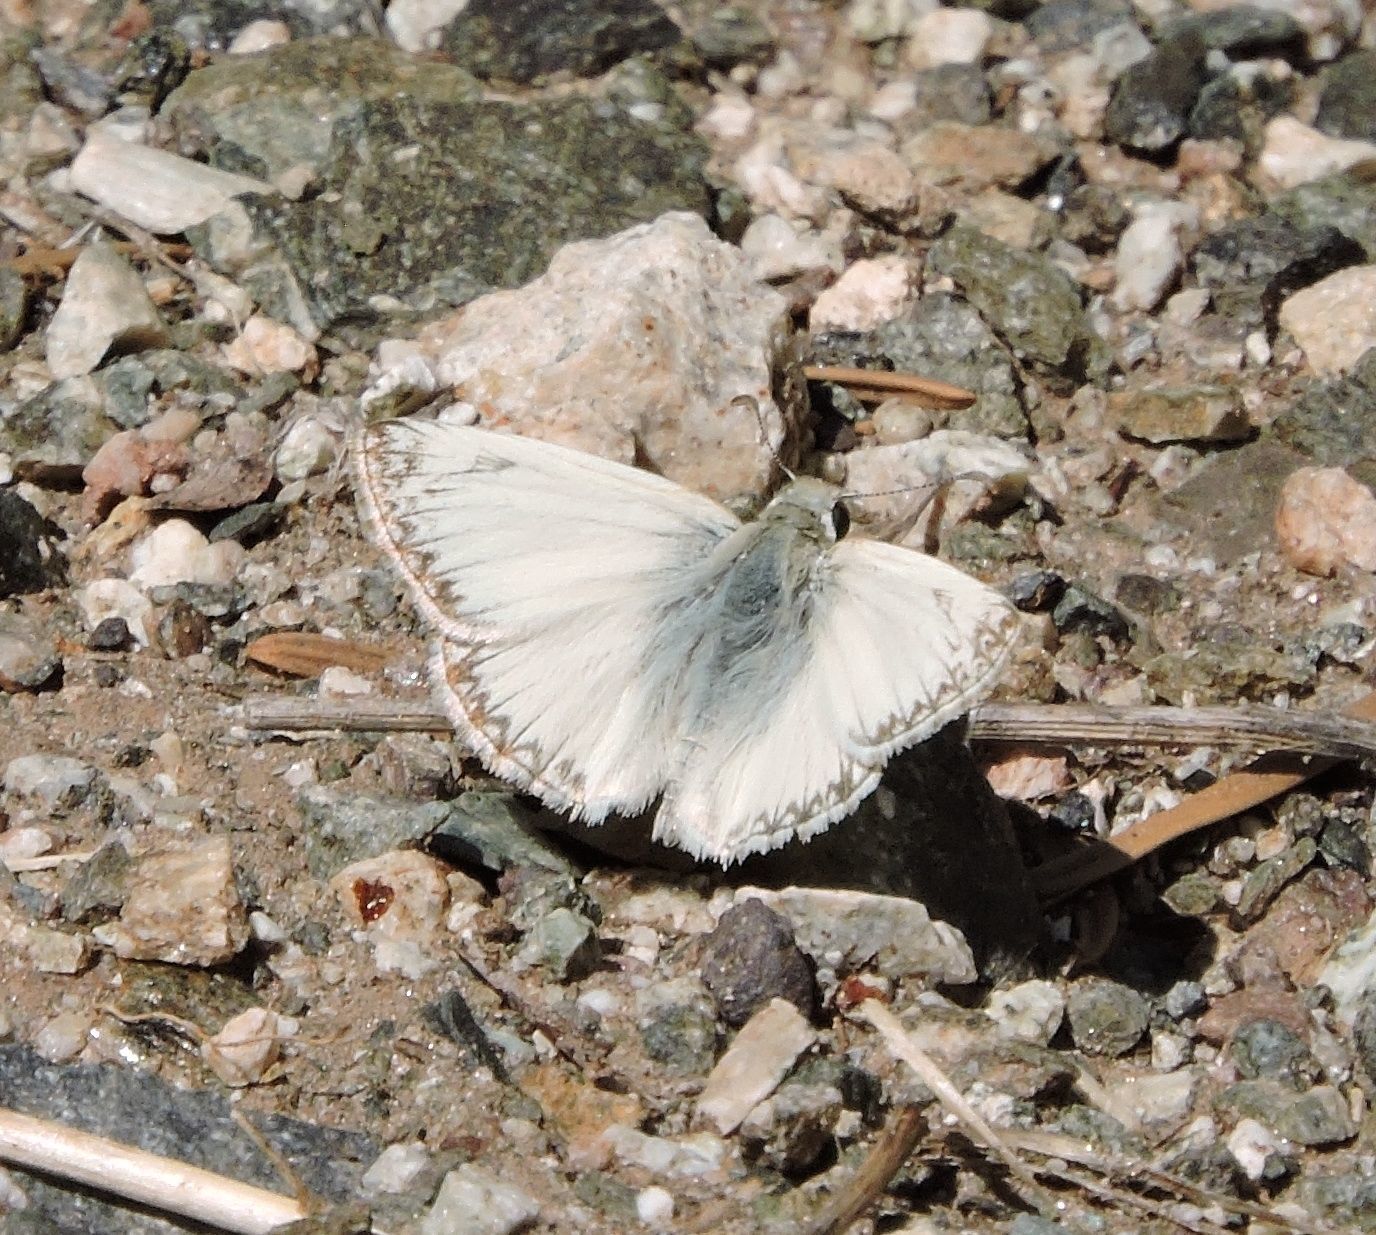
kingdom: Animalia
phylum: Arthropoda
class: Insecta
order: Lepidoptera
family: Hesperiidae
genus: Heliopetes
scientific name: Heliopetes ericetorum
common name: Northern white-skipper
